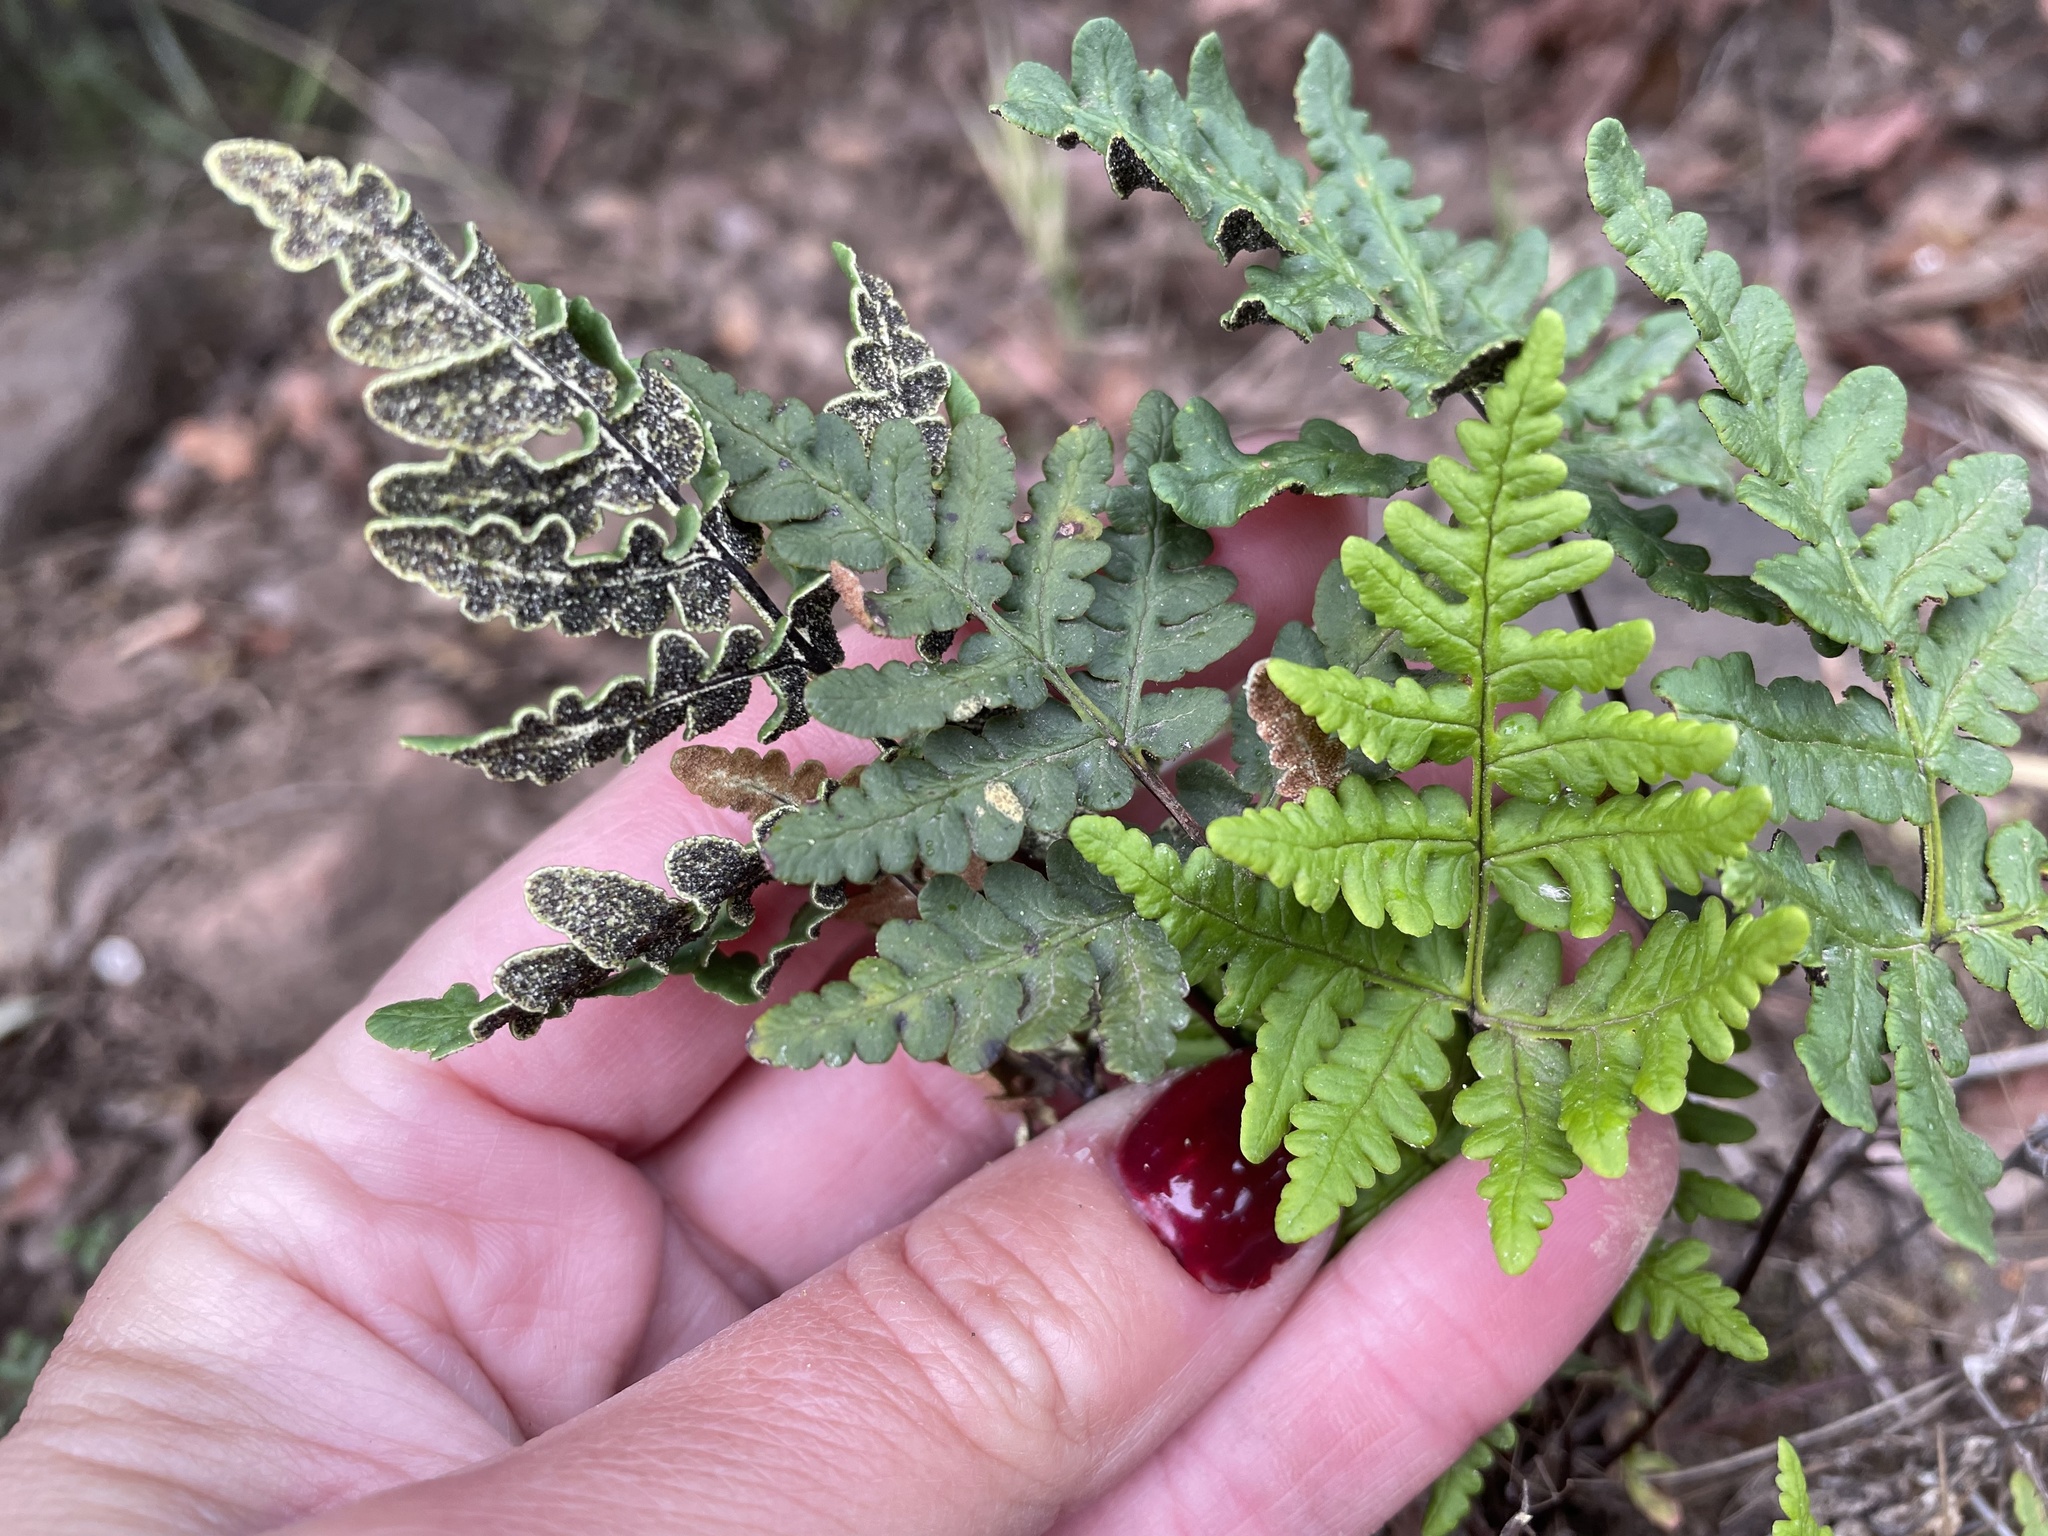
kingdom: Plantae
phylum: Tracheophyta
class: Polypodiopsida
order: Polypodiales
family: Pteridaceae
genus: Pentagramma
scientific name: Pentagramma triangularis
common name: Gold fern
